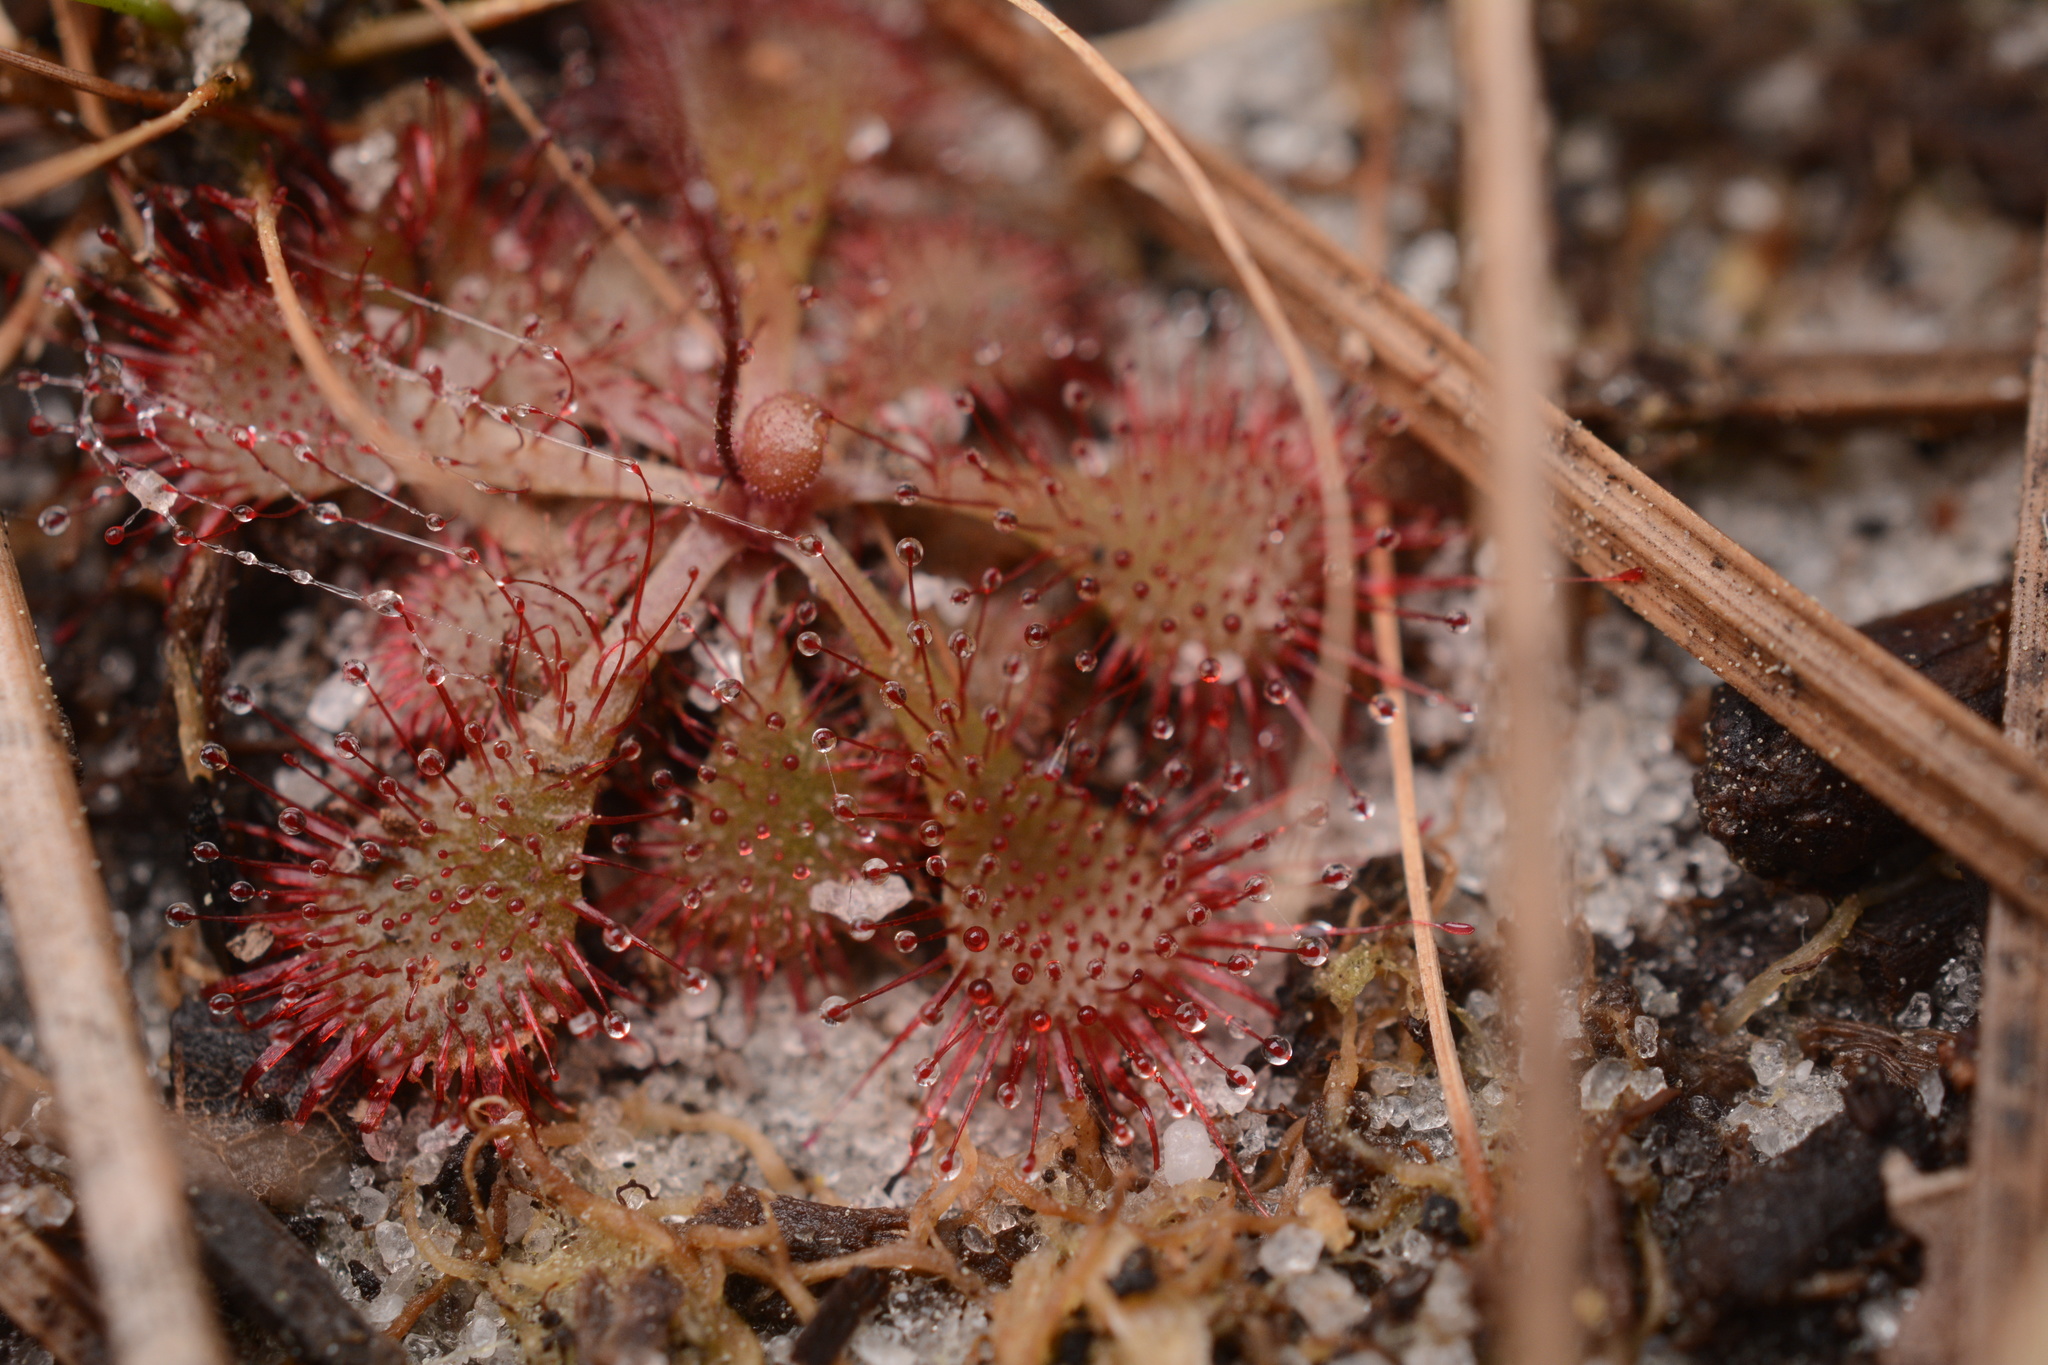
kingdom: Plantae
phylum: Tracheophyta
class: Magnoliopsida
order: Caryophyllales
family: Droseraceae
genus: Drosera
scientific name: Drosera brevifolia
